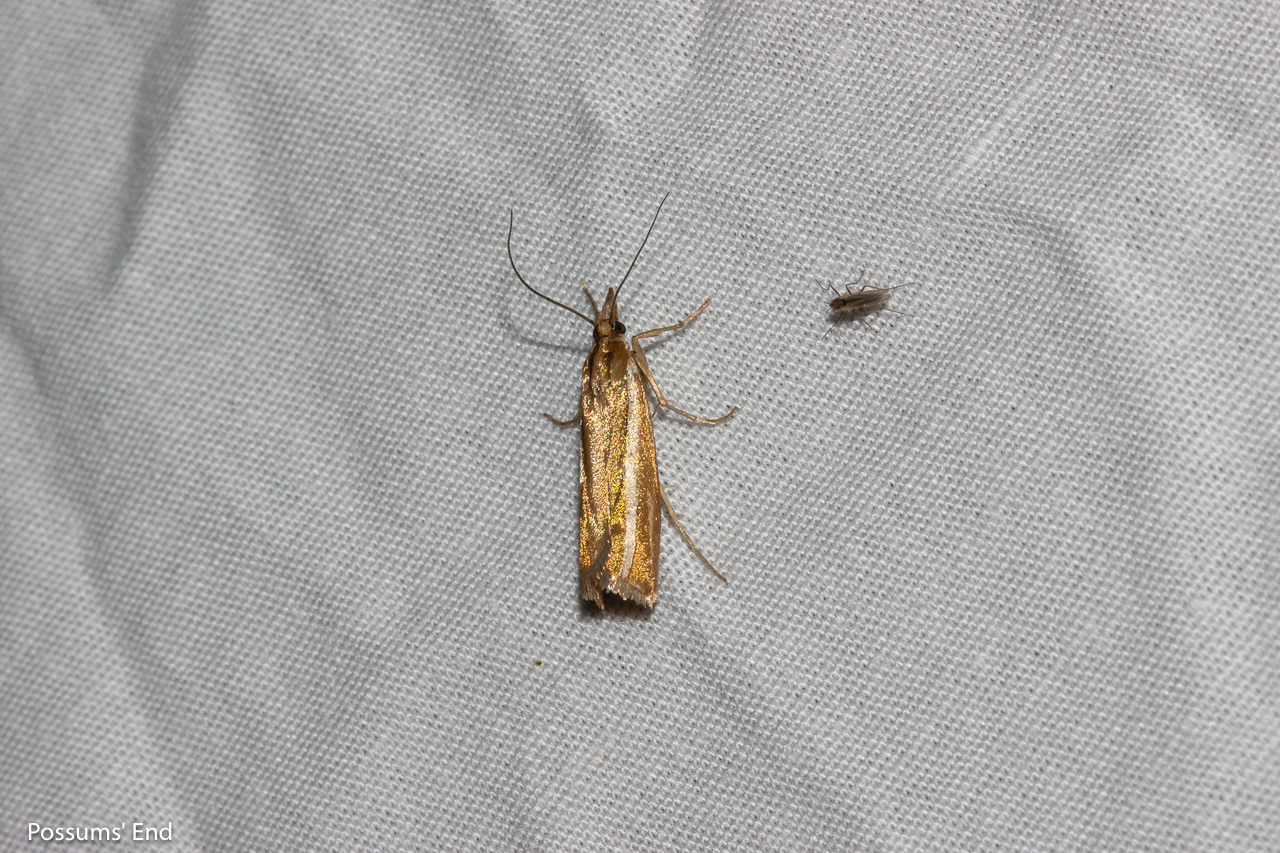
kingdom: Animalia
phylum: Arthropoda
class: Insecta
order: Lepidoptera
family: Crambidae
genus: Orocrambus
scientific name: Orocrambus aethonellus
